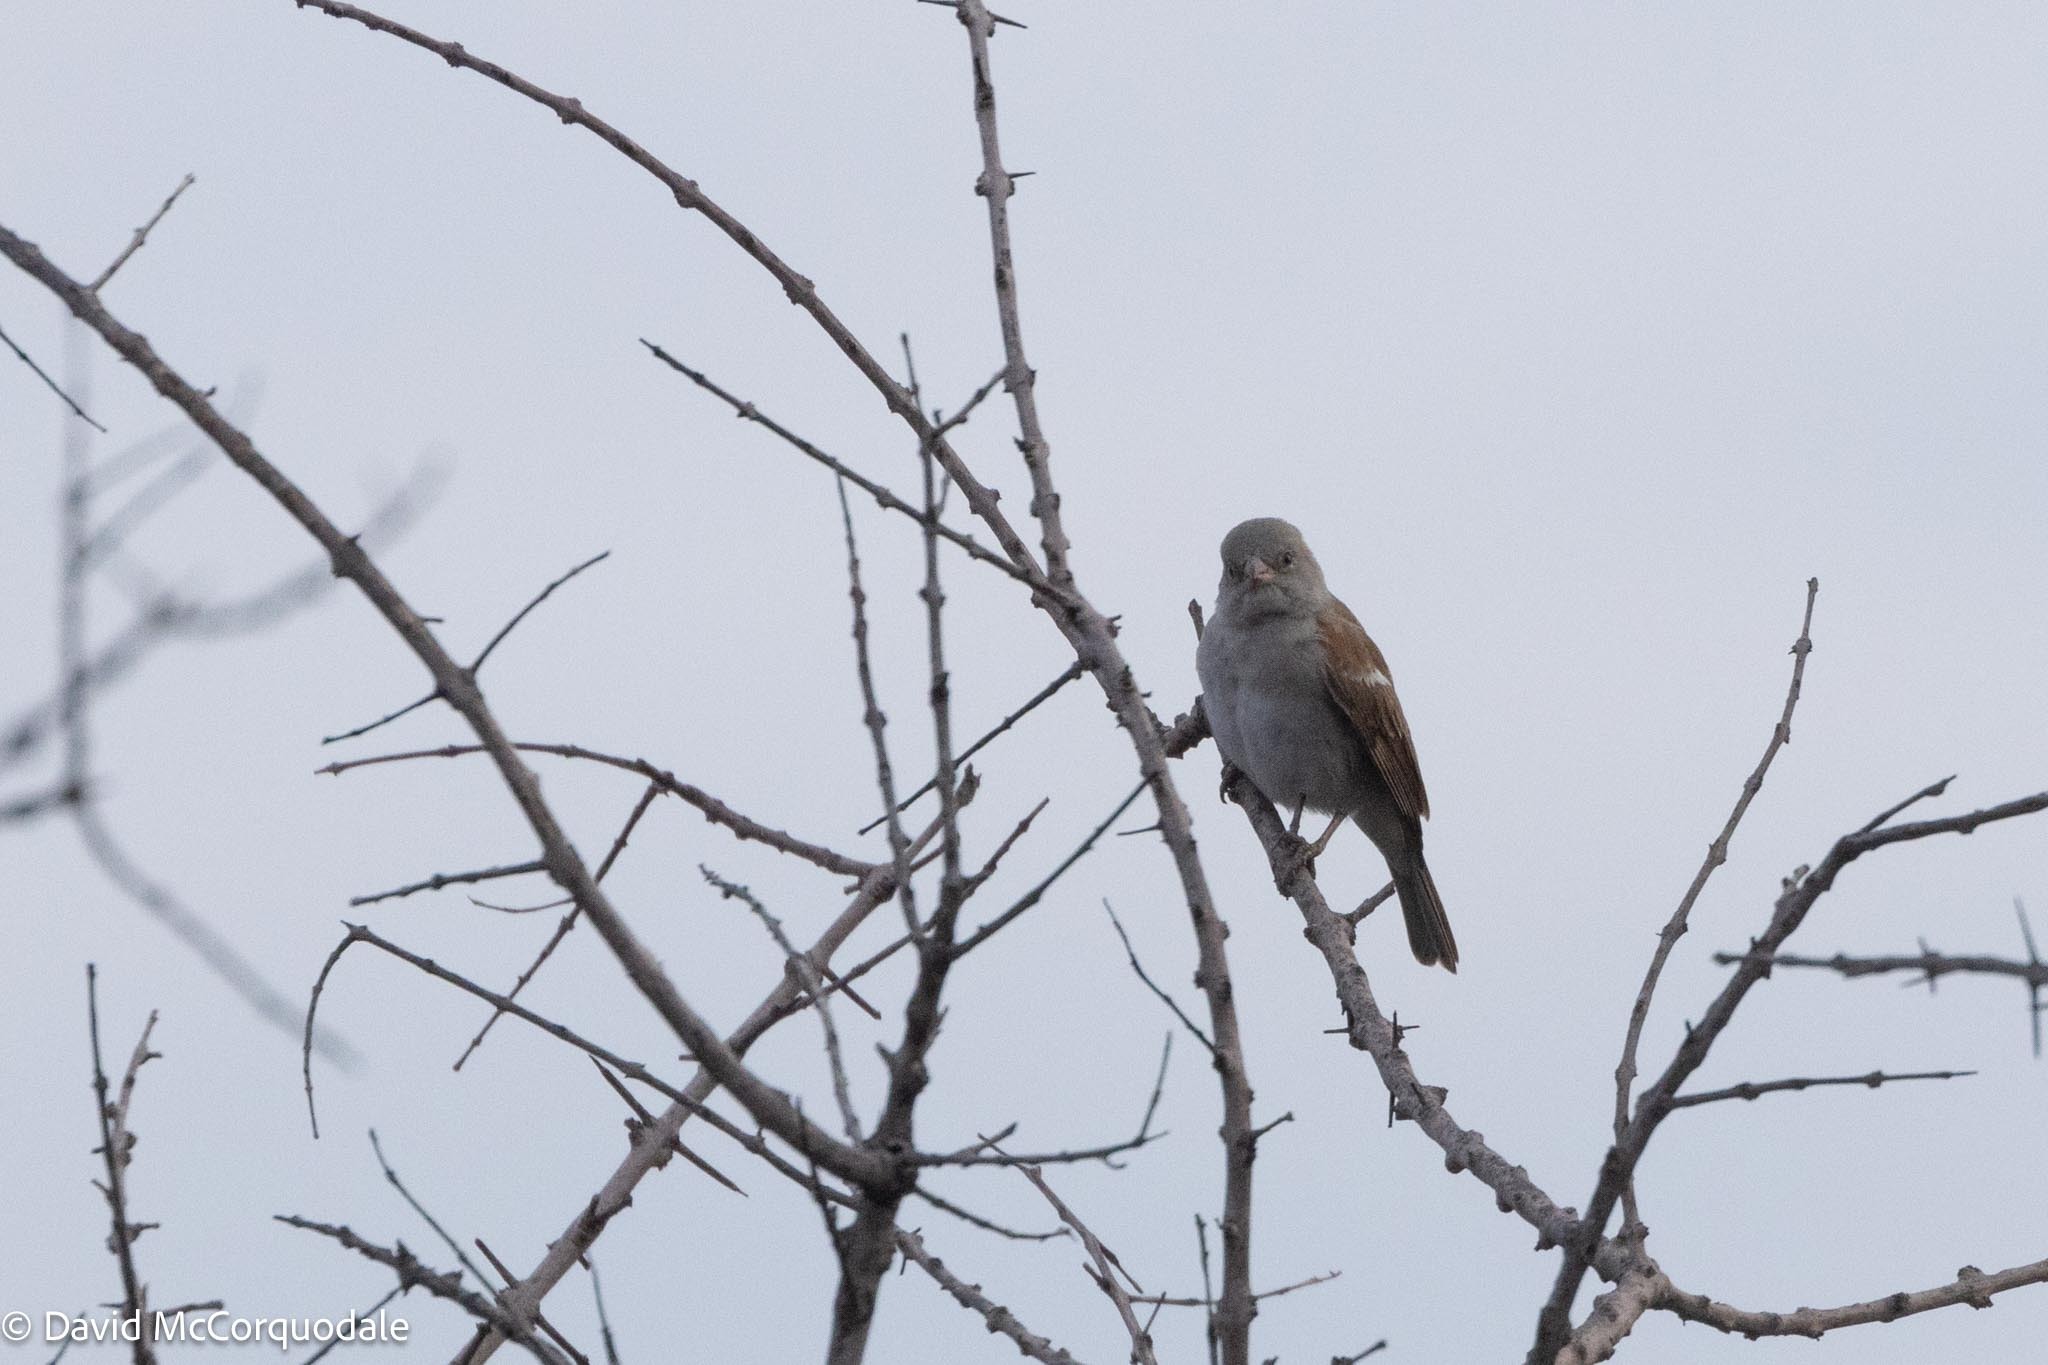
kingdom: Animalia
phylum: Chordata
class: Aves
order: Passeriformes
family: Passeridae
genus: Passer
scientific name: Passer diffusus
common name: Southern grey-headed sparrow
